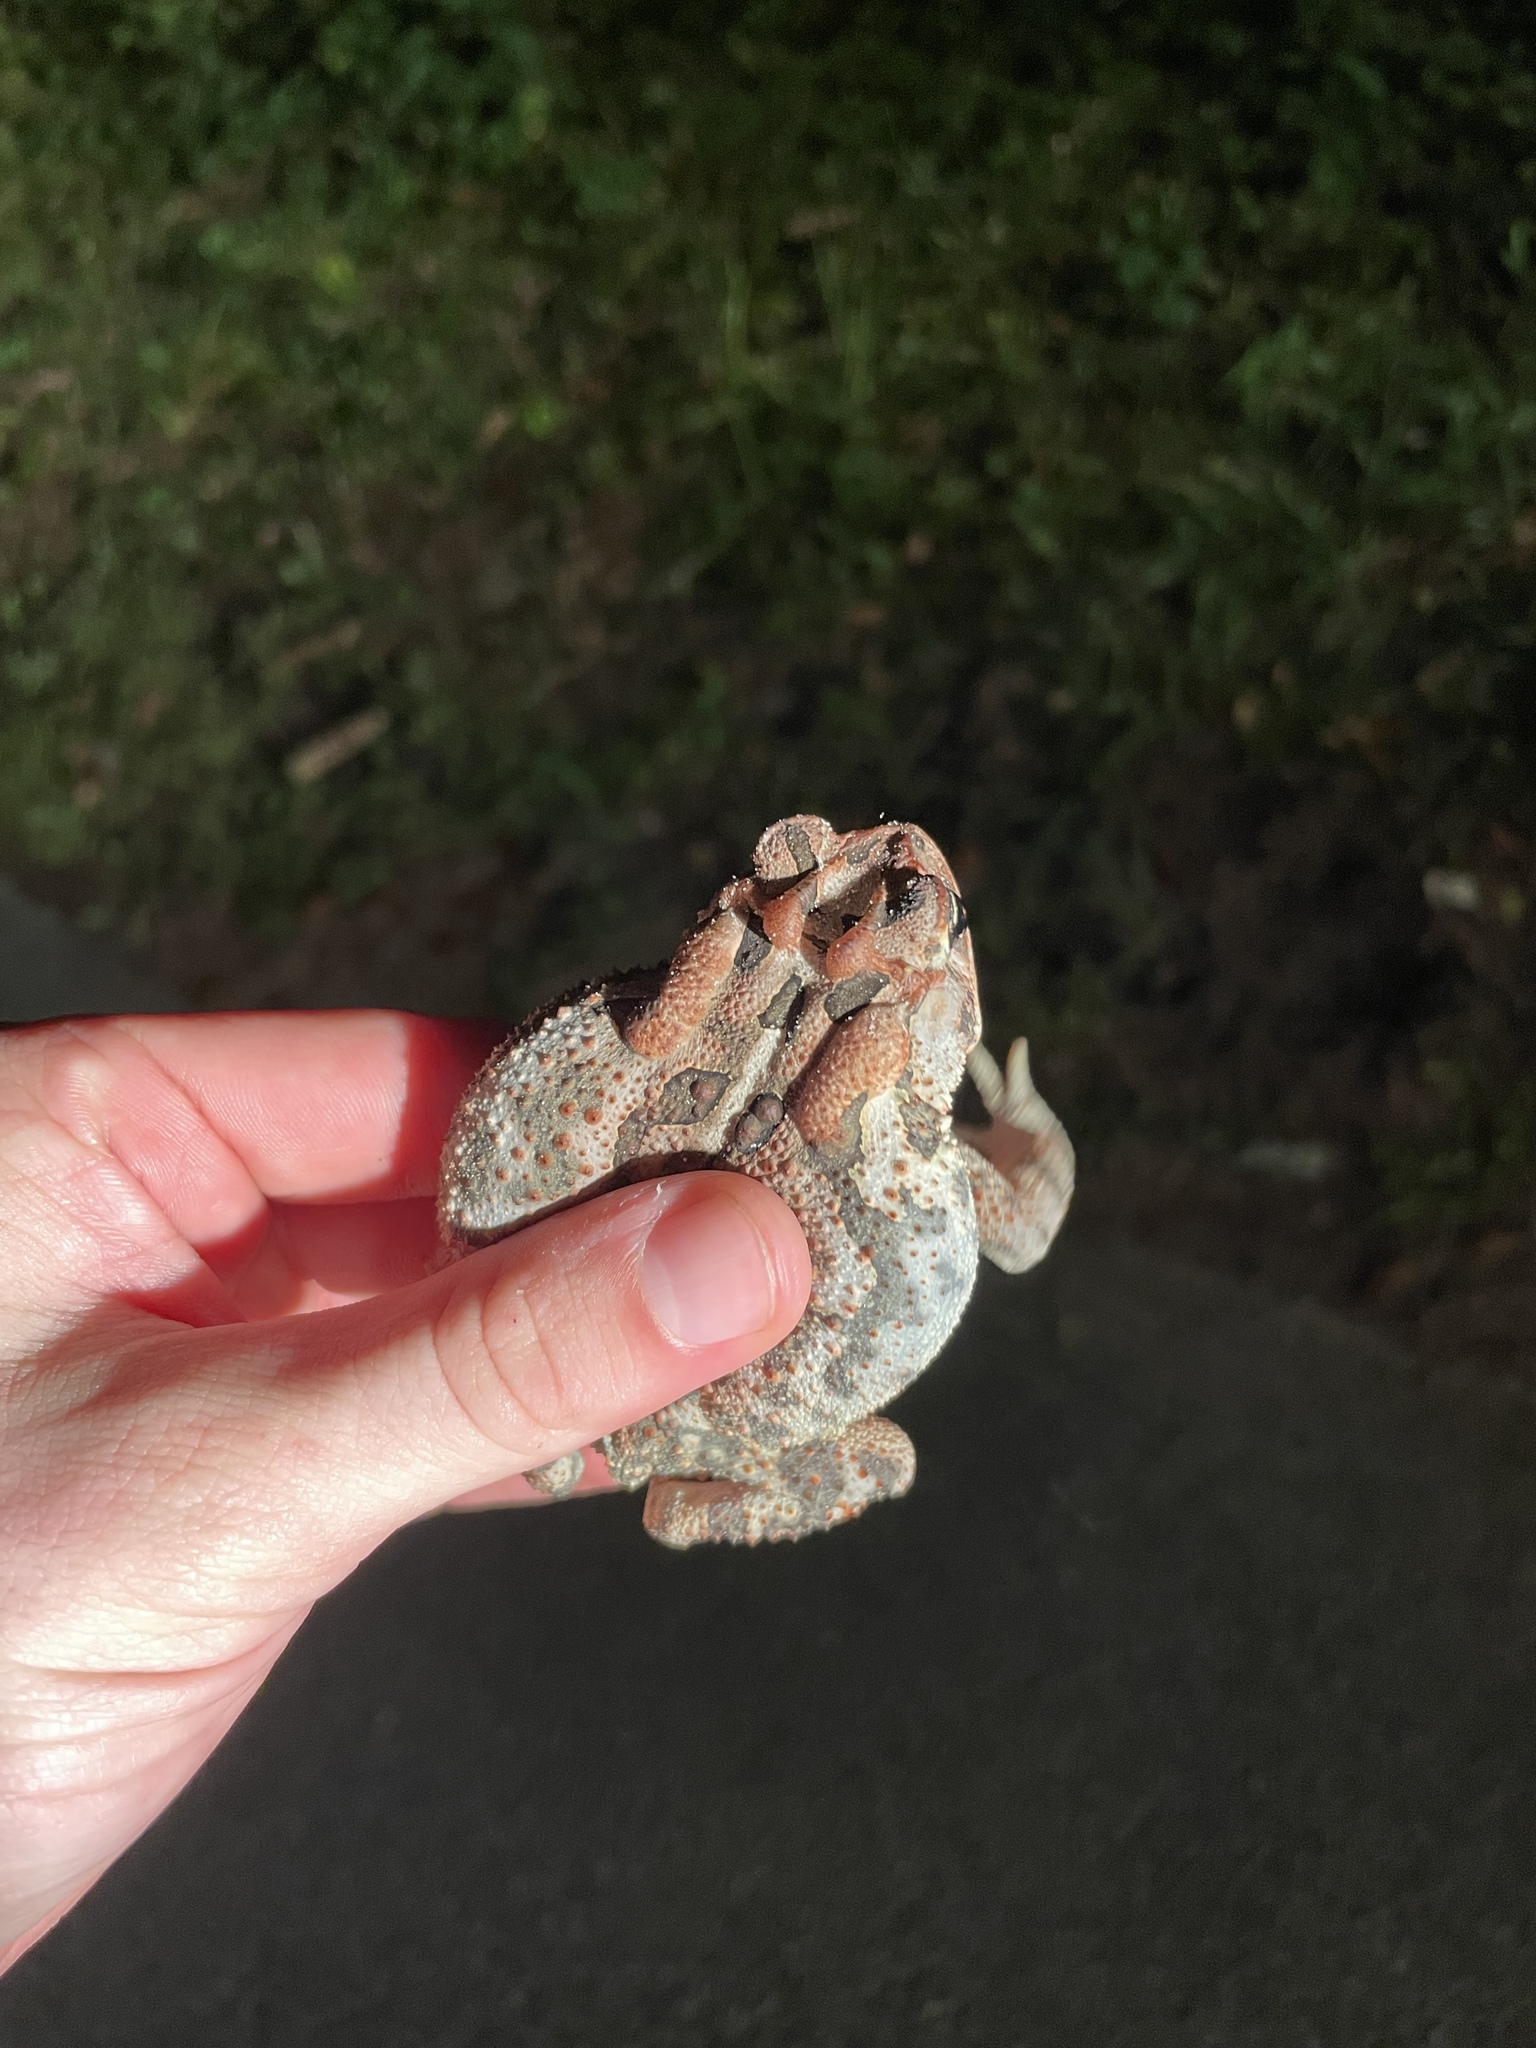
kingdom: Animalia
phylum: Chordata
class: Amphibia
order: Anura
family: Bufonidae
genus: Anaxyrus
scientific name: Anaxyrus terrestris
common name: Southern toad
